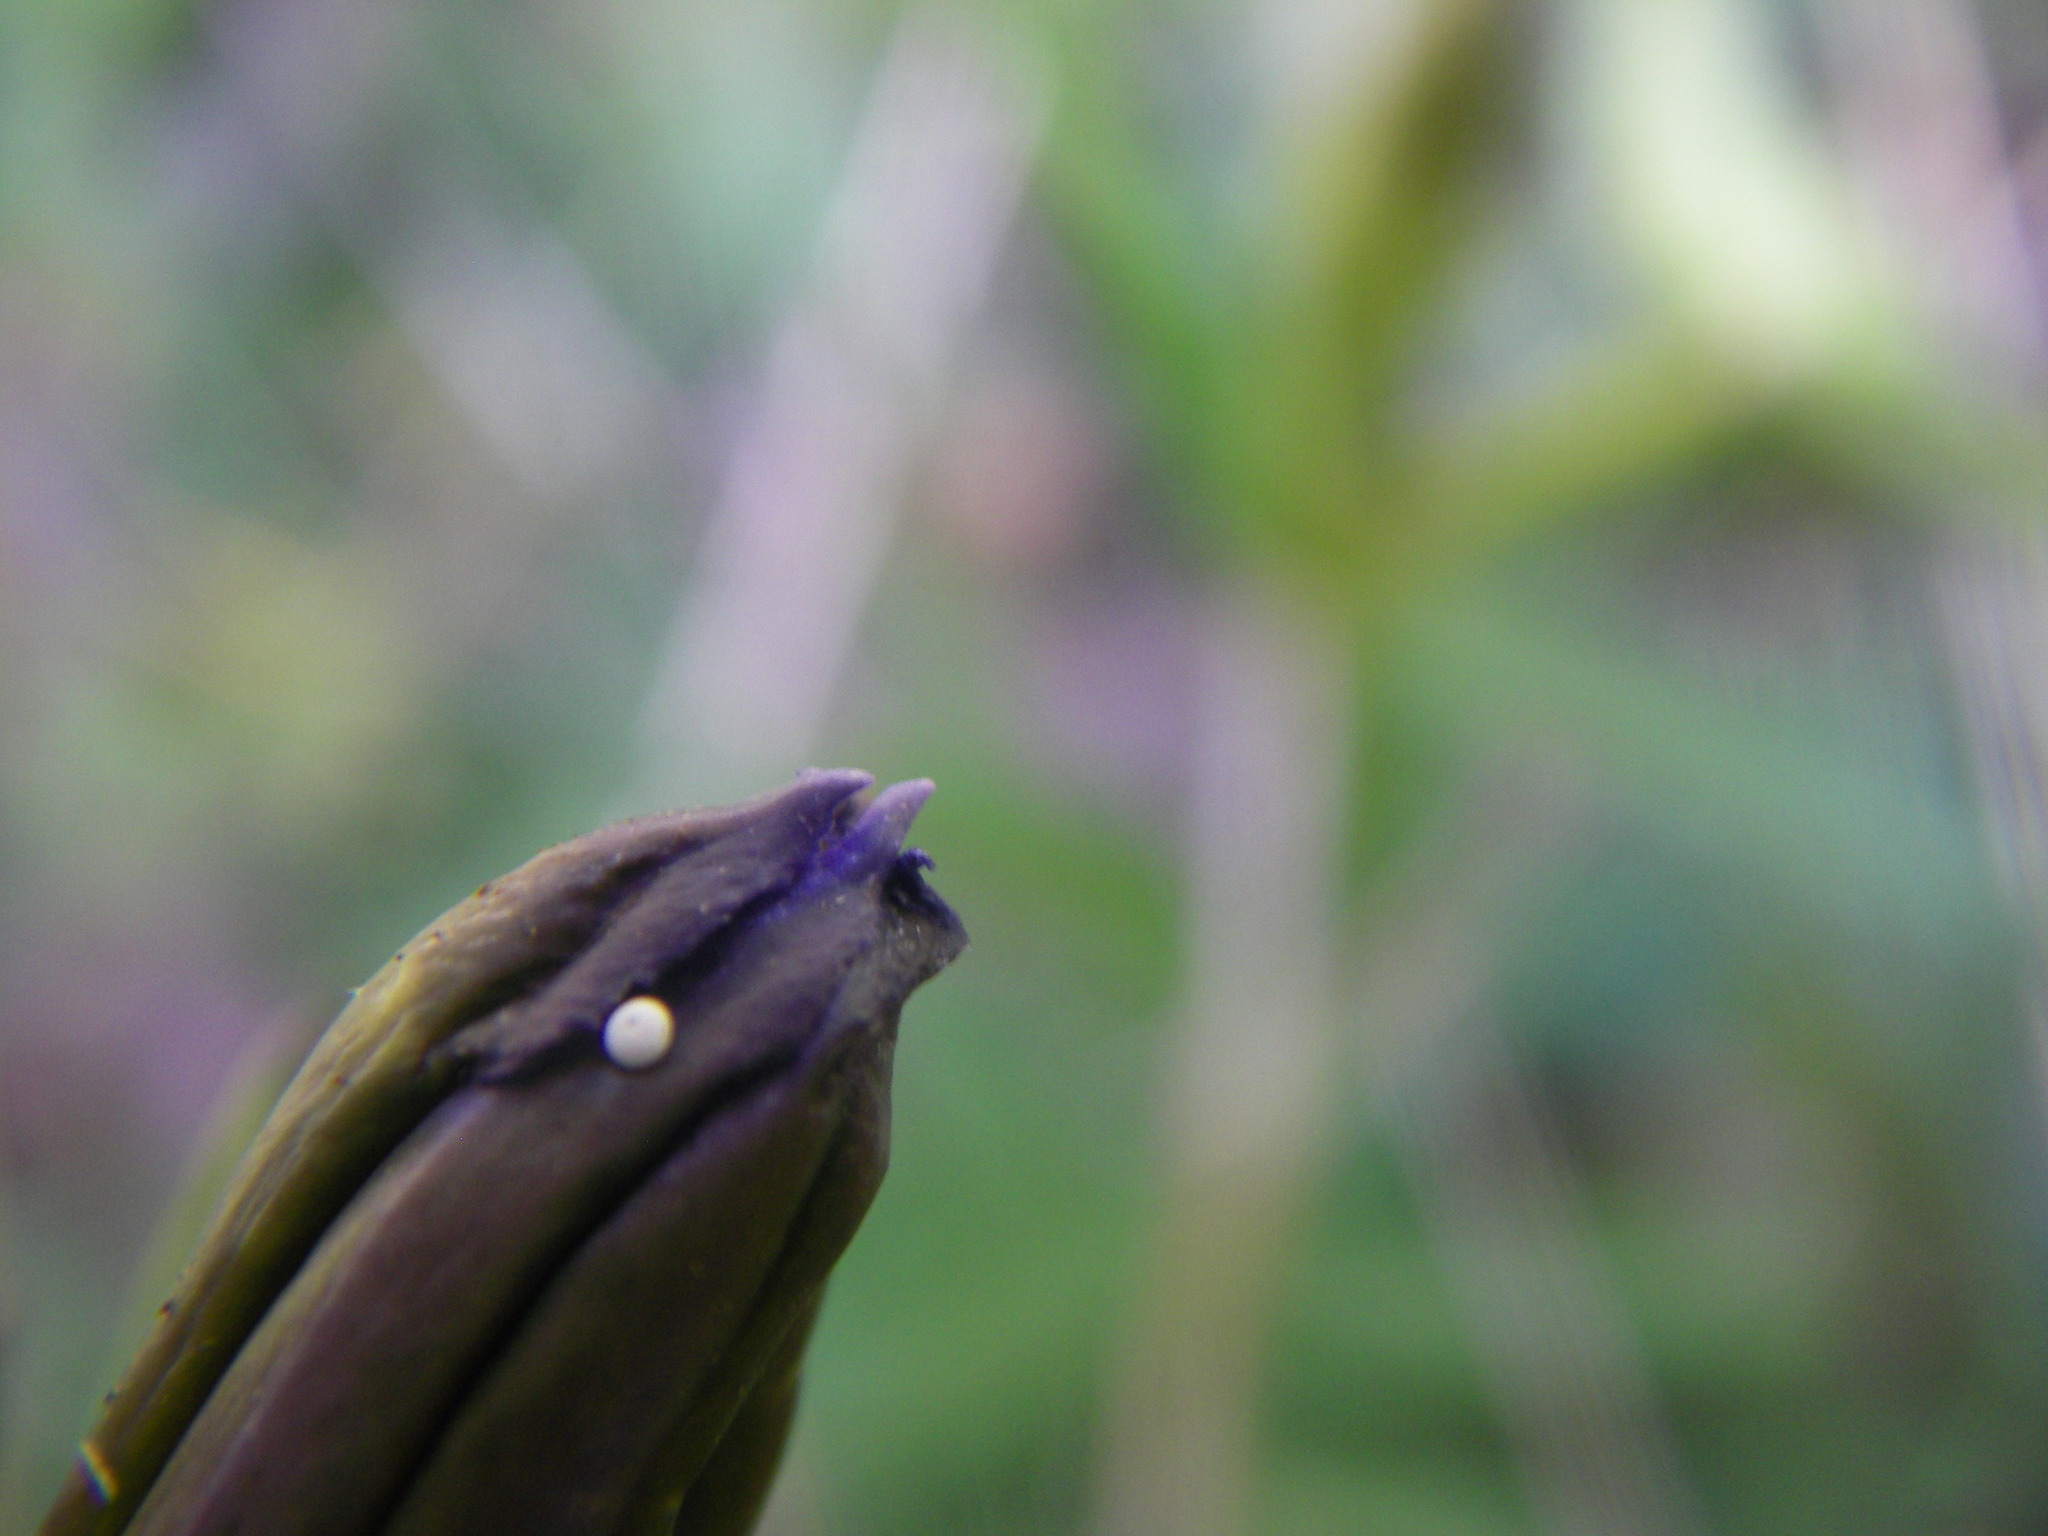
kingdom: Plantae
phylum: Tracheophyta
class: Magnoliopsida
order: Gentianales
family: Gentianaceae
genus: Gentiana
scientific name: Gentiana pneumonanthe
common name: Marsh gentian
